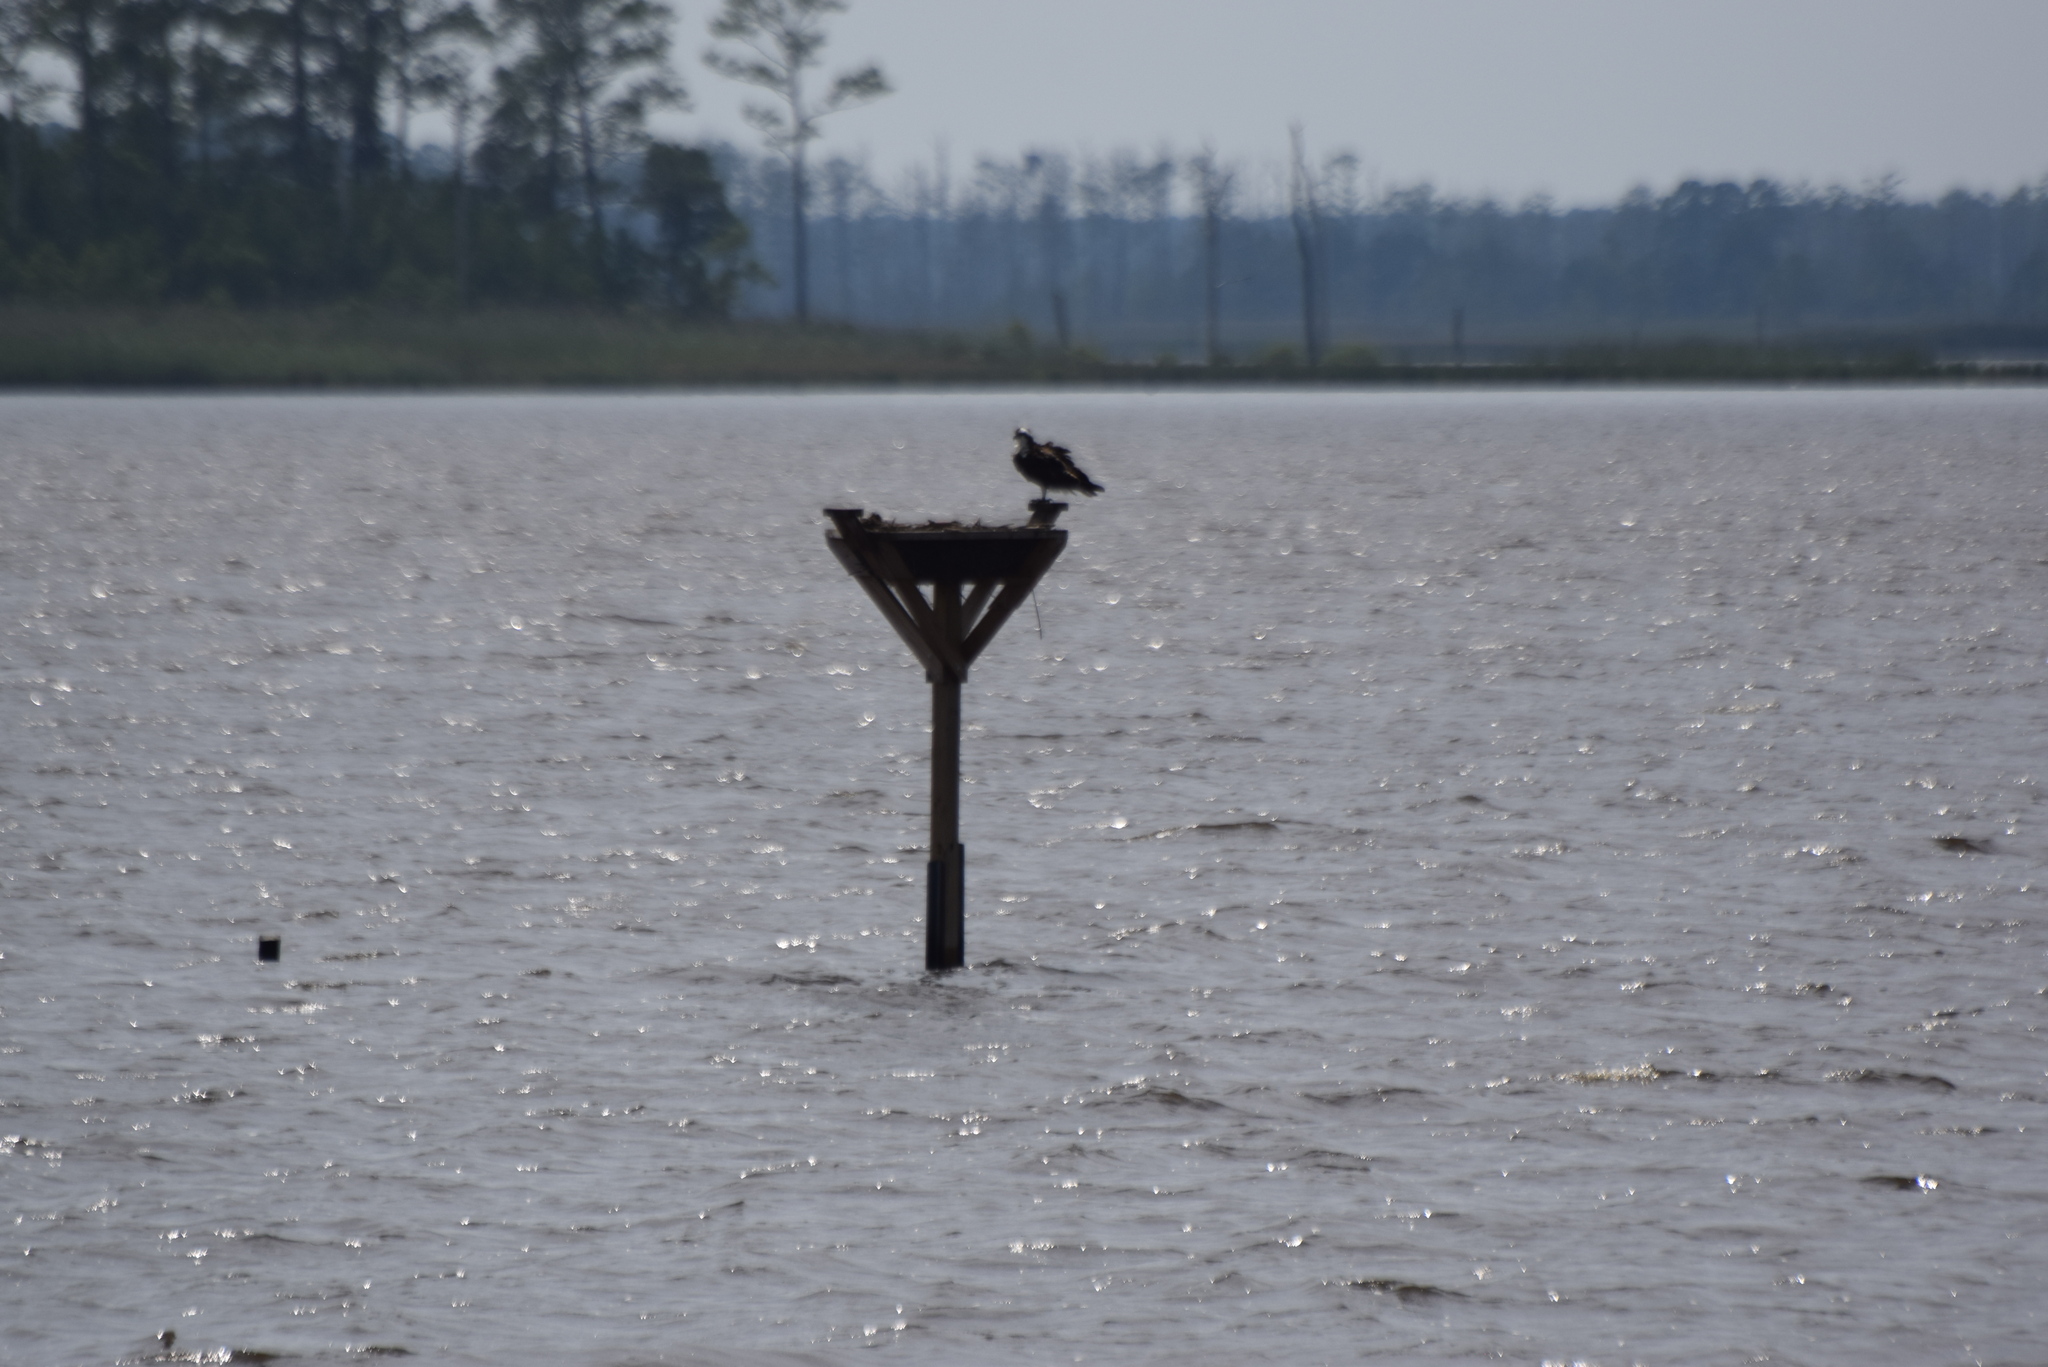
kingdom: Animalia
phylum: Chordata
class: Aves
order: Accipitriformes
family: Pandionidae
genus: Pandion
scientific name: Pandion haliaetus
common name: Osprey
